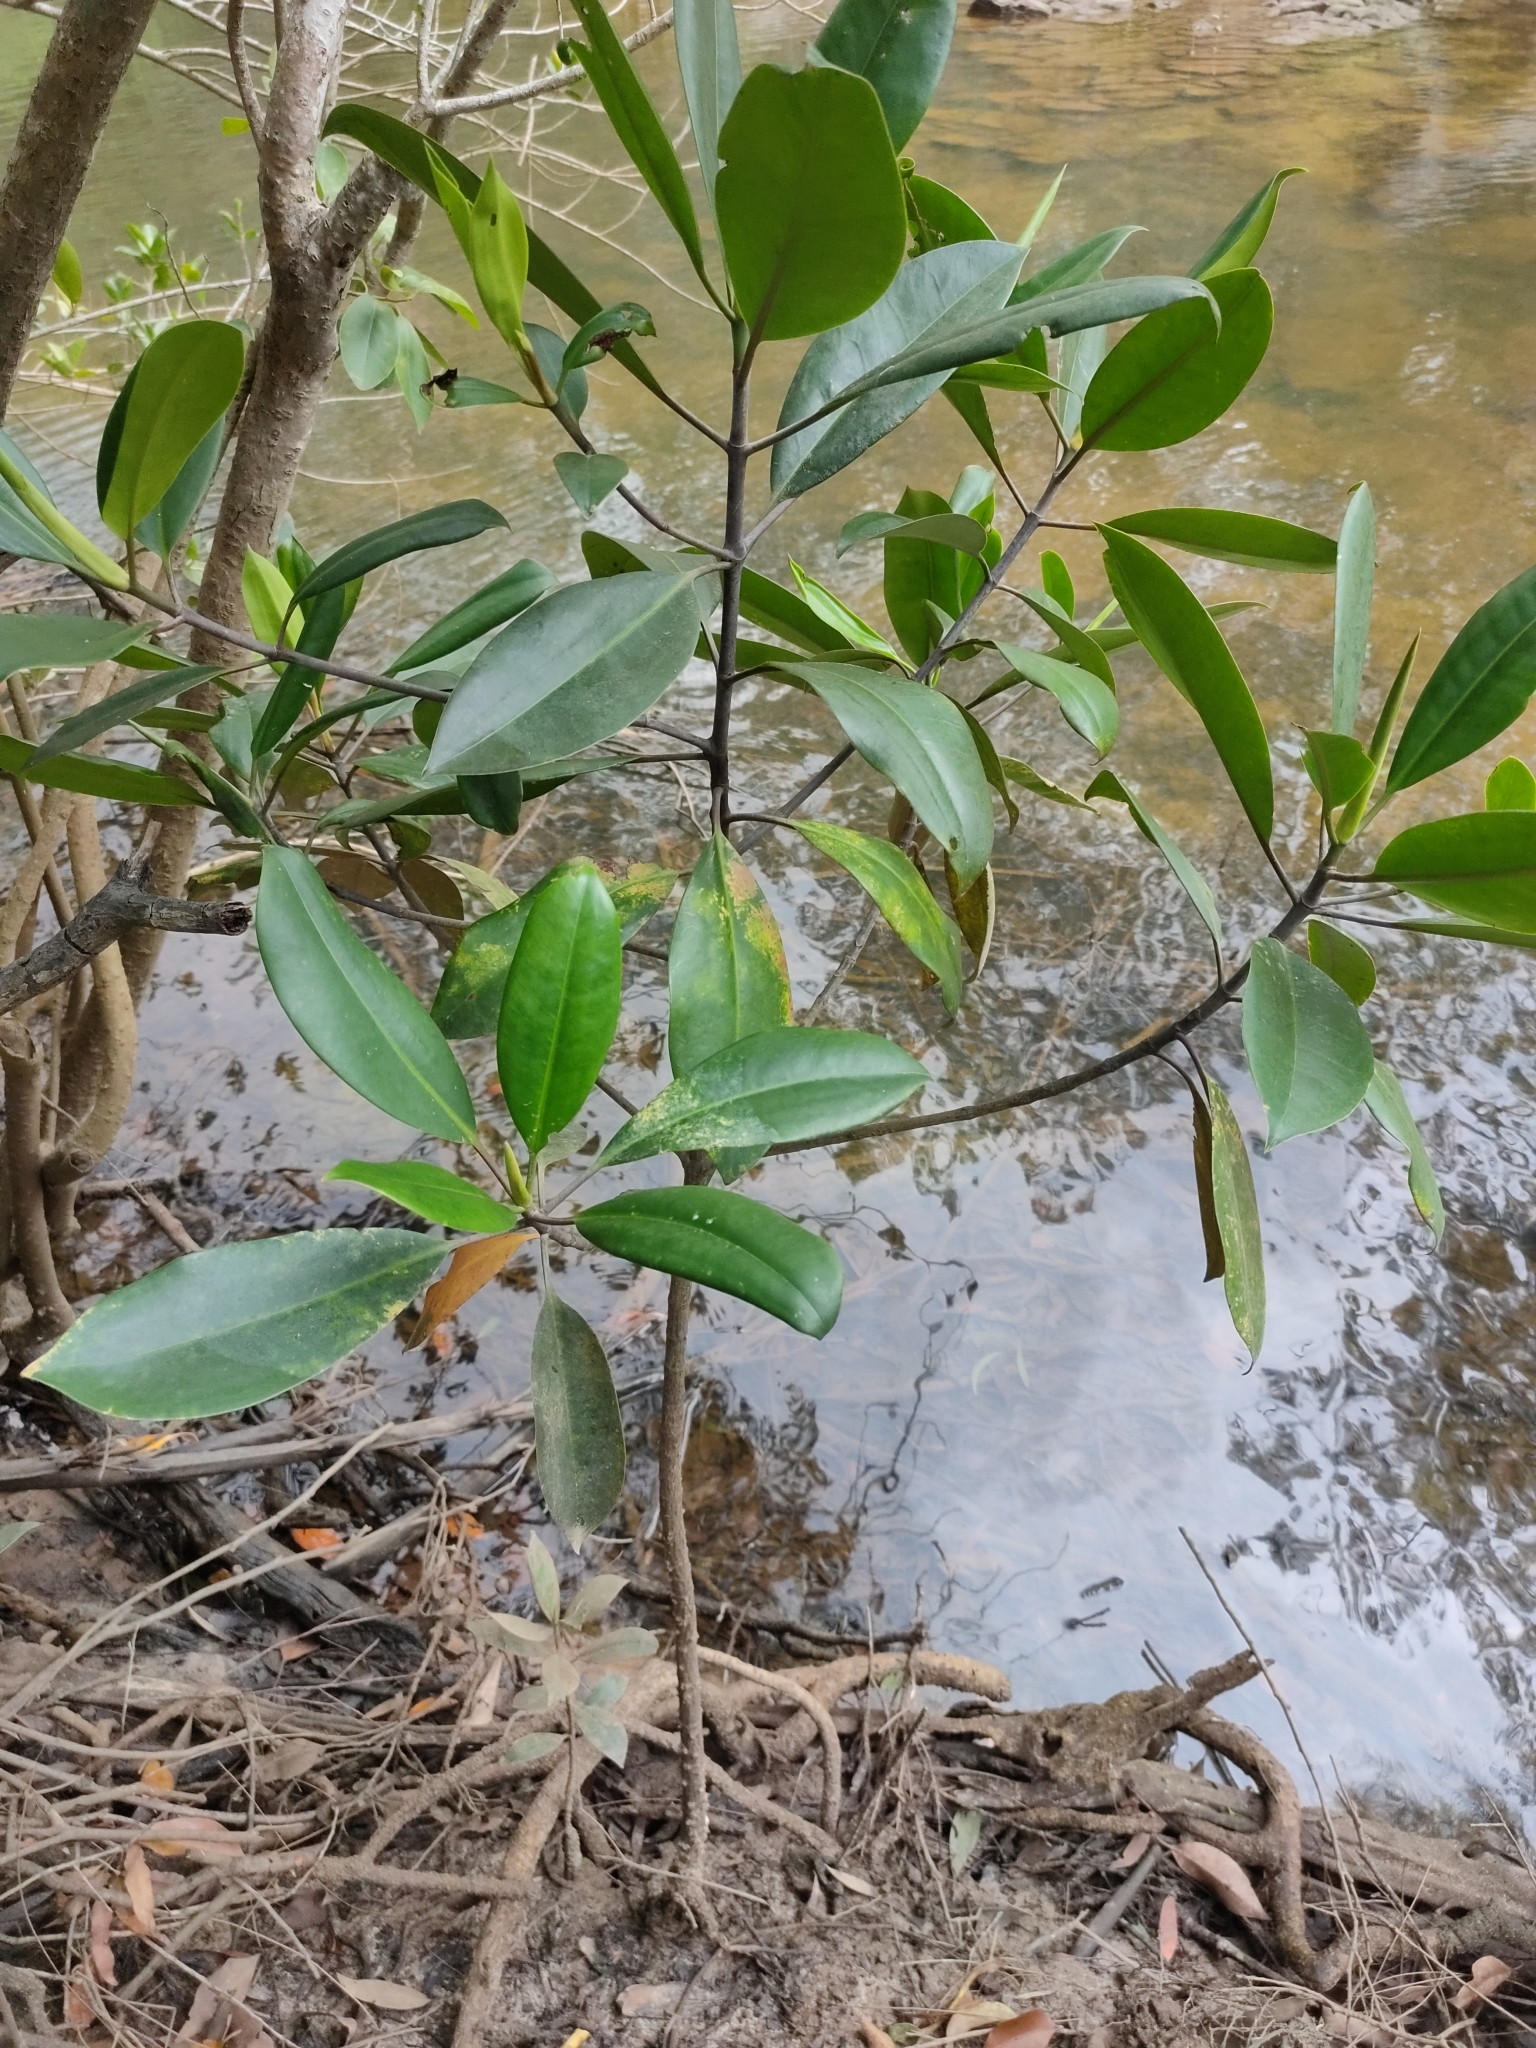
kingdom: Plantae
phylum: Tracheophyta
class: Magnoliopsida
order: Malpighiales
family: Rhizophoraceae
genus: Bruguiera
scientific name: Bruguiera gymnorhiza
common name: Oriental mangrove
